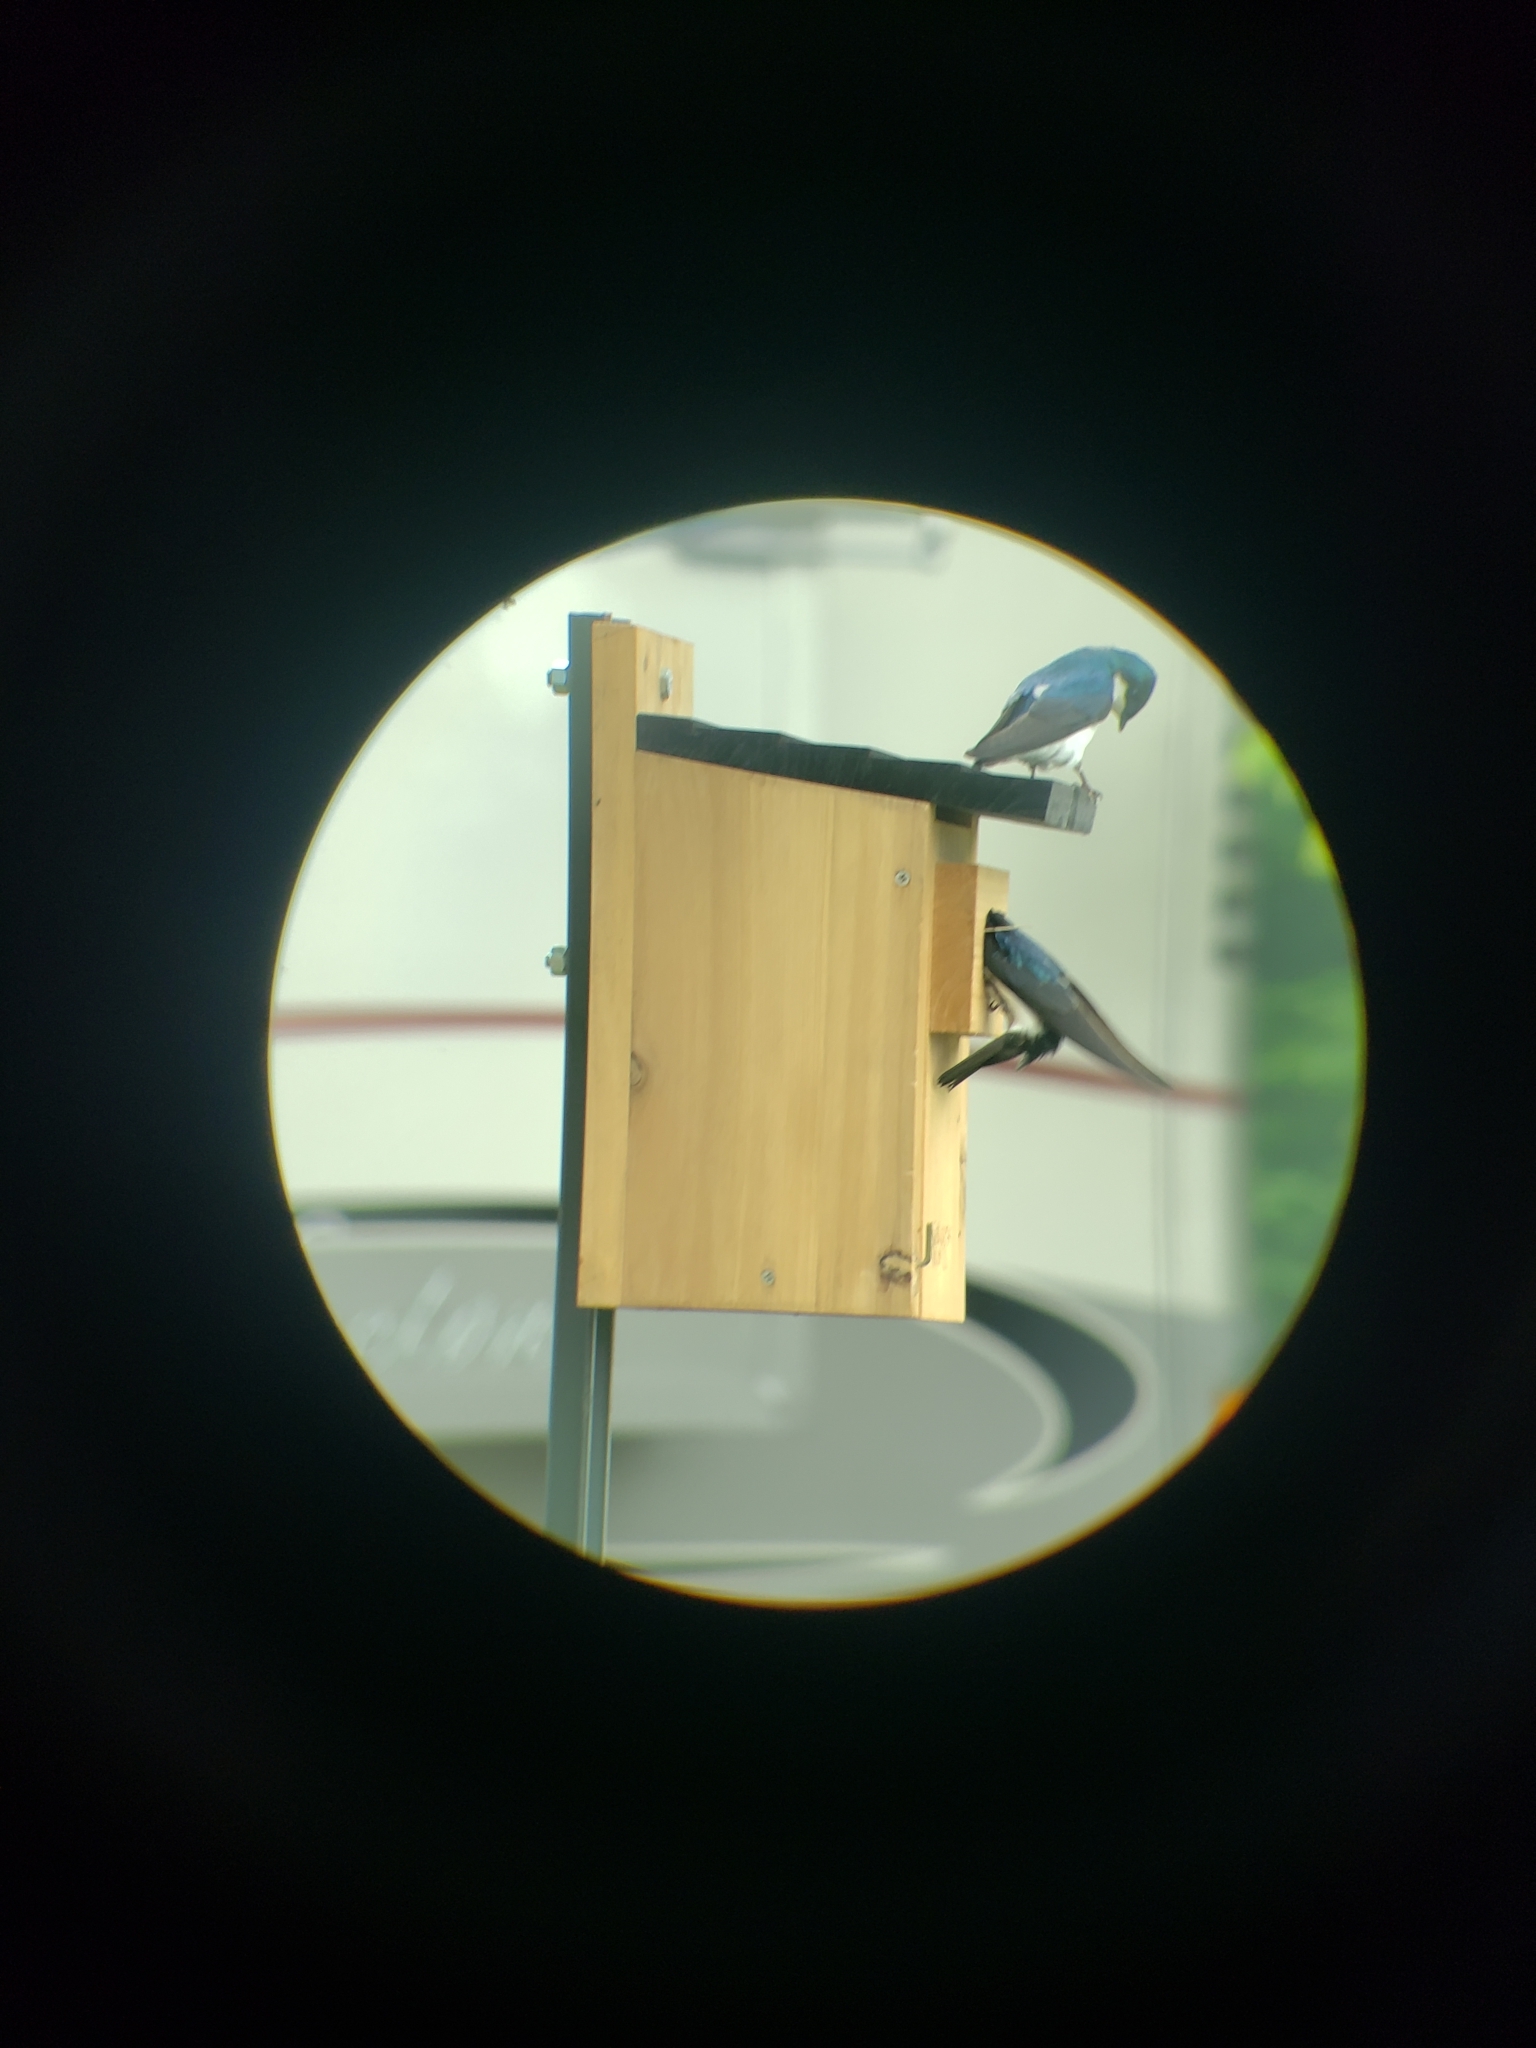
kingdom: Animalia
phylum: Chordata
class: Aves
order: Passeriformes
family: Hirundinidae
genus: Tachycineta
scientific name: Tachycineta bicolor
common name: Tree swallow
